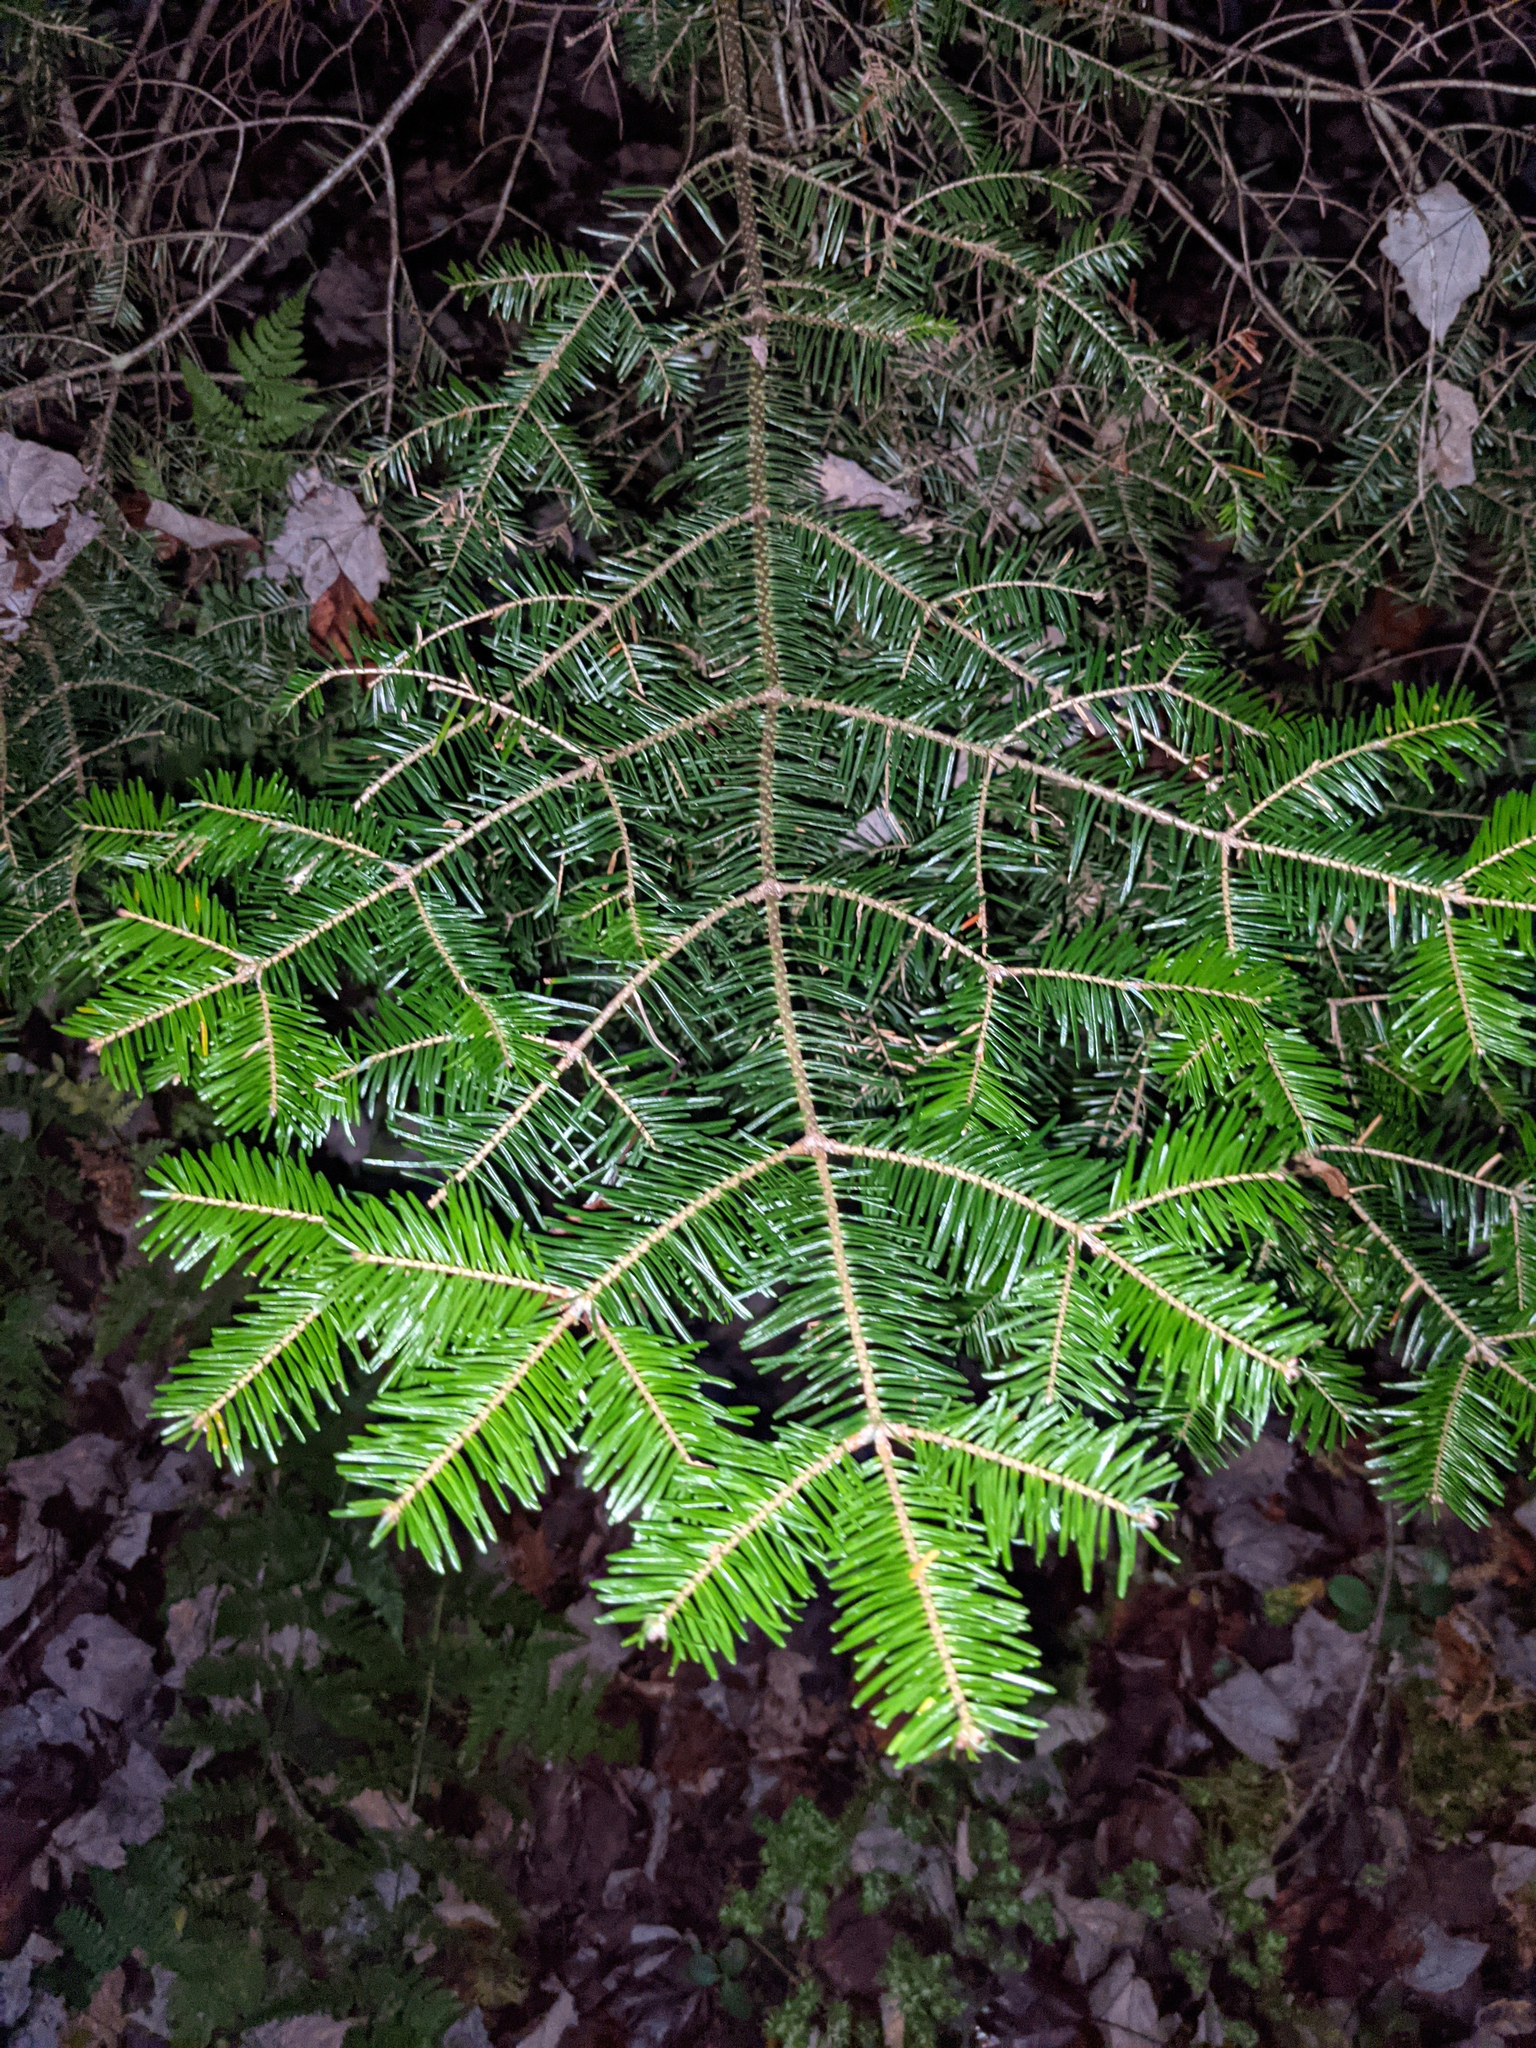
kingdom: Plantae
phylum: Tracheophyta
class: Pinopsida
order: Pinales
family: Pinaceae
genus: Abies
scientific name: Abies balsamea
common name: Balsam fir
